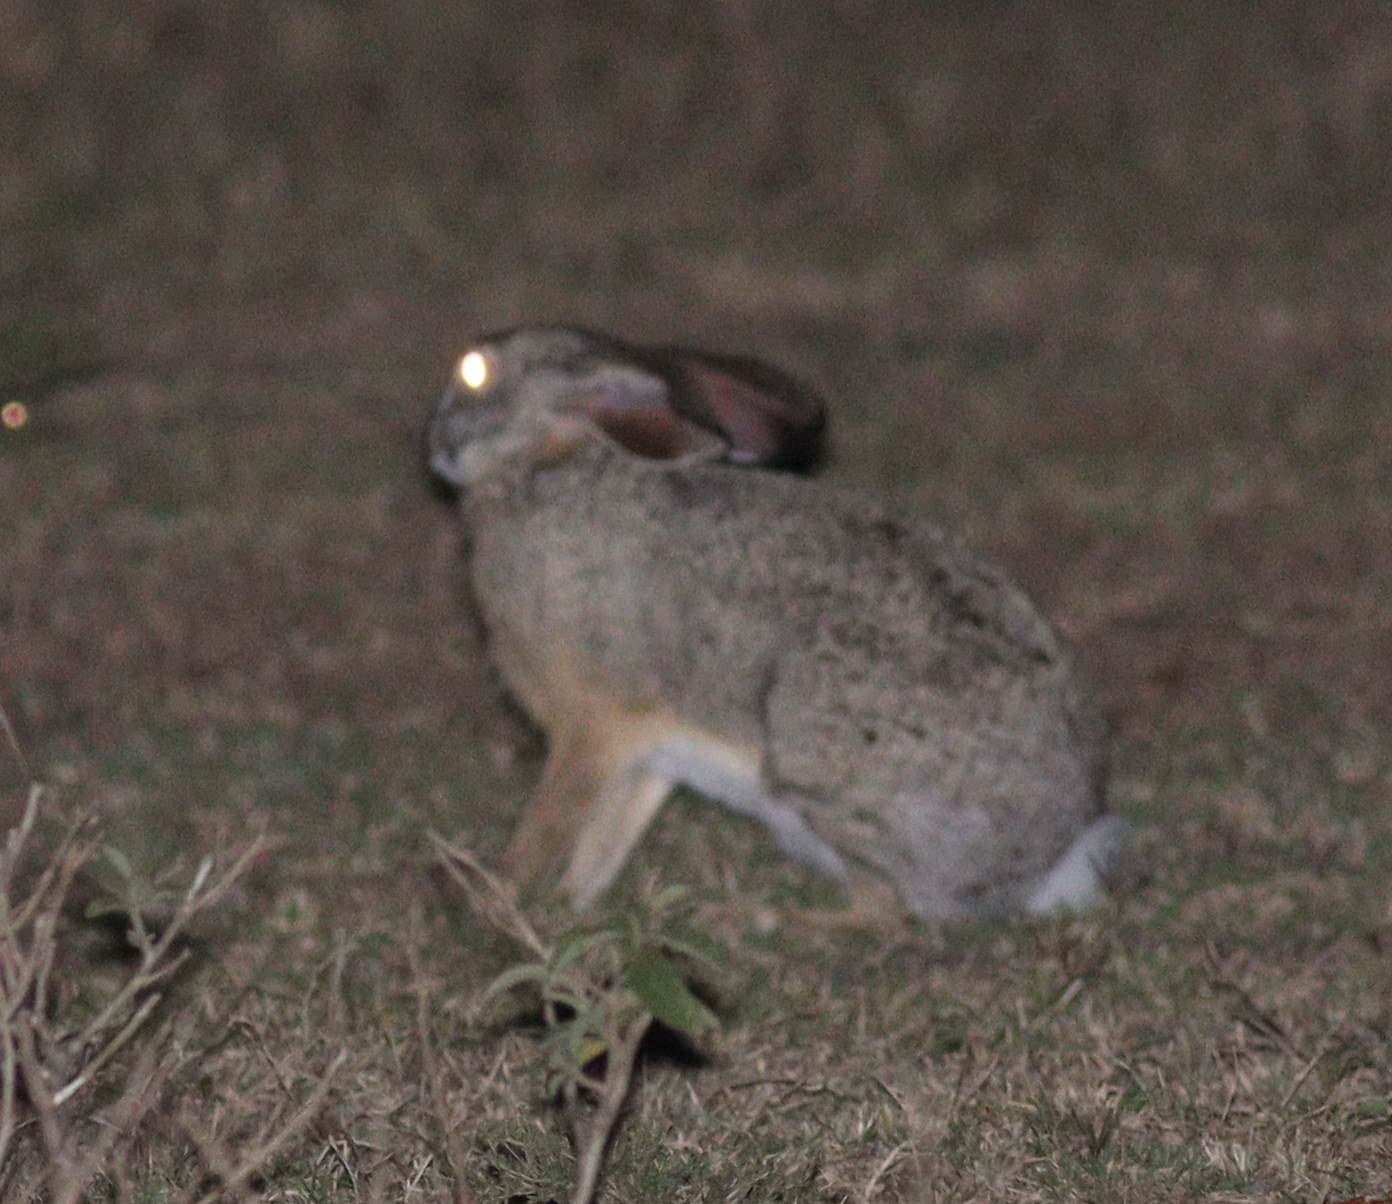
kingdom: Animalia
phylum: Chordata
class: Mammalia
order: Lagomorpha
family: Leporidae
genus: Lepus
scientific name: Lepus victoriae
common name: African savanna hare
